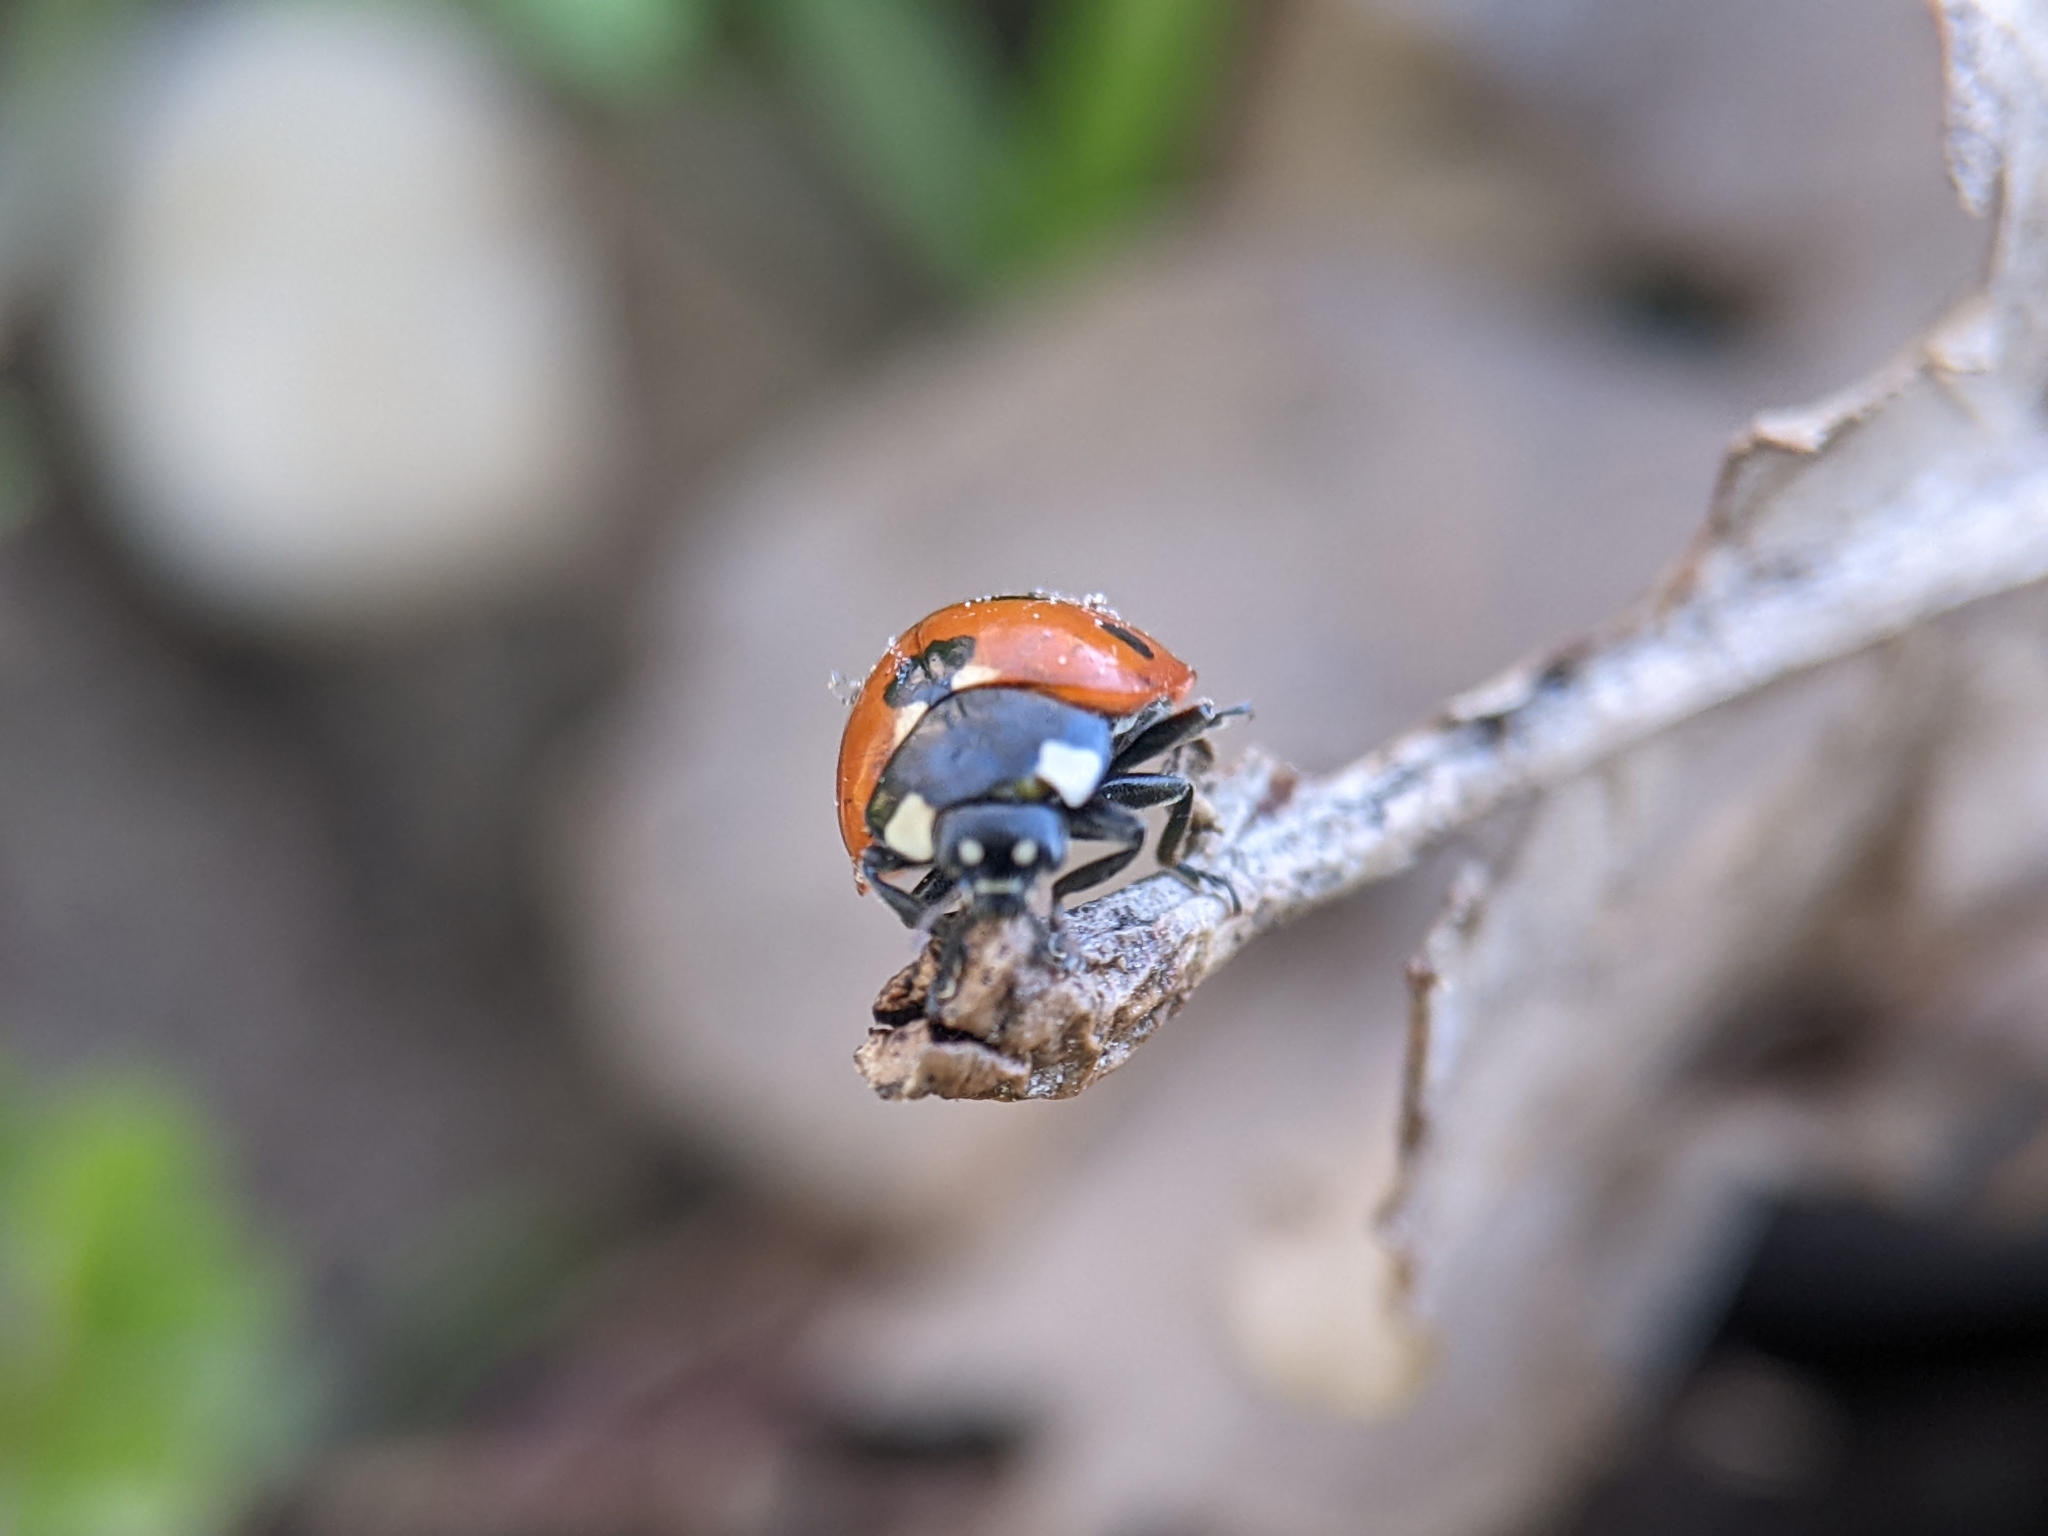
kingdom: Animalia
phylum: Arthropoda
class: Insecta
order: Coleoptera
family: Coccinellidae
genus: Coccinella
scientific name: Coccinella septempunctata
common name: Sevenspotted lady beetle
